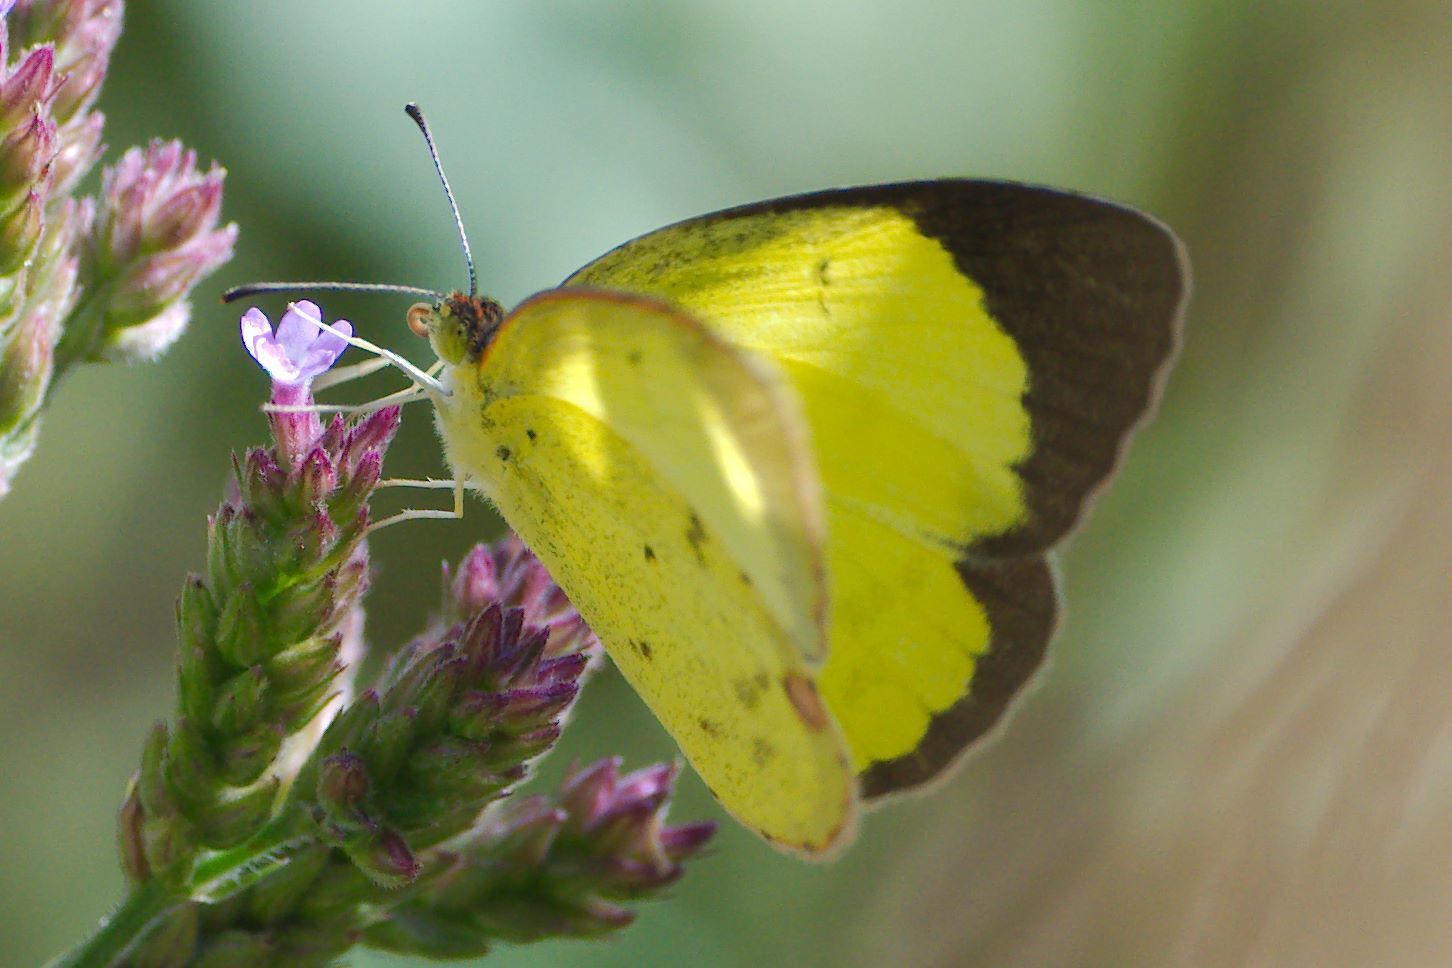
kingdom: Animalia
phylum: Arthropoda
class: Insecta
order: Lepidoptera
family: Pieridae
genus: Pyrisitia
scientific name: Pyrisitia lisa
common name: Little yellow
